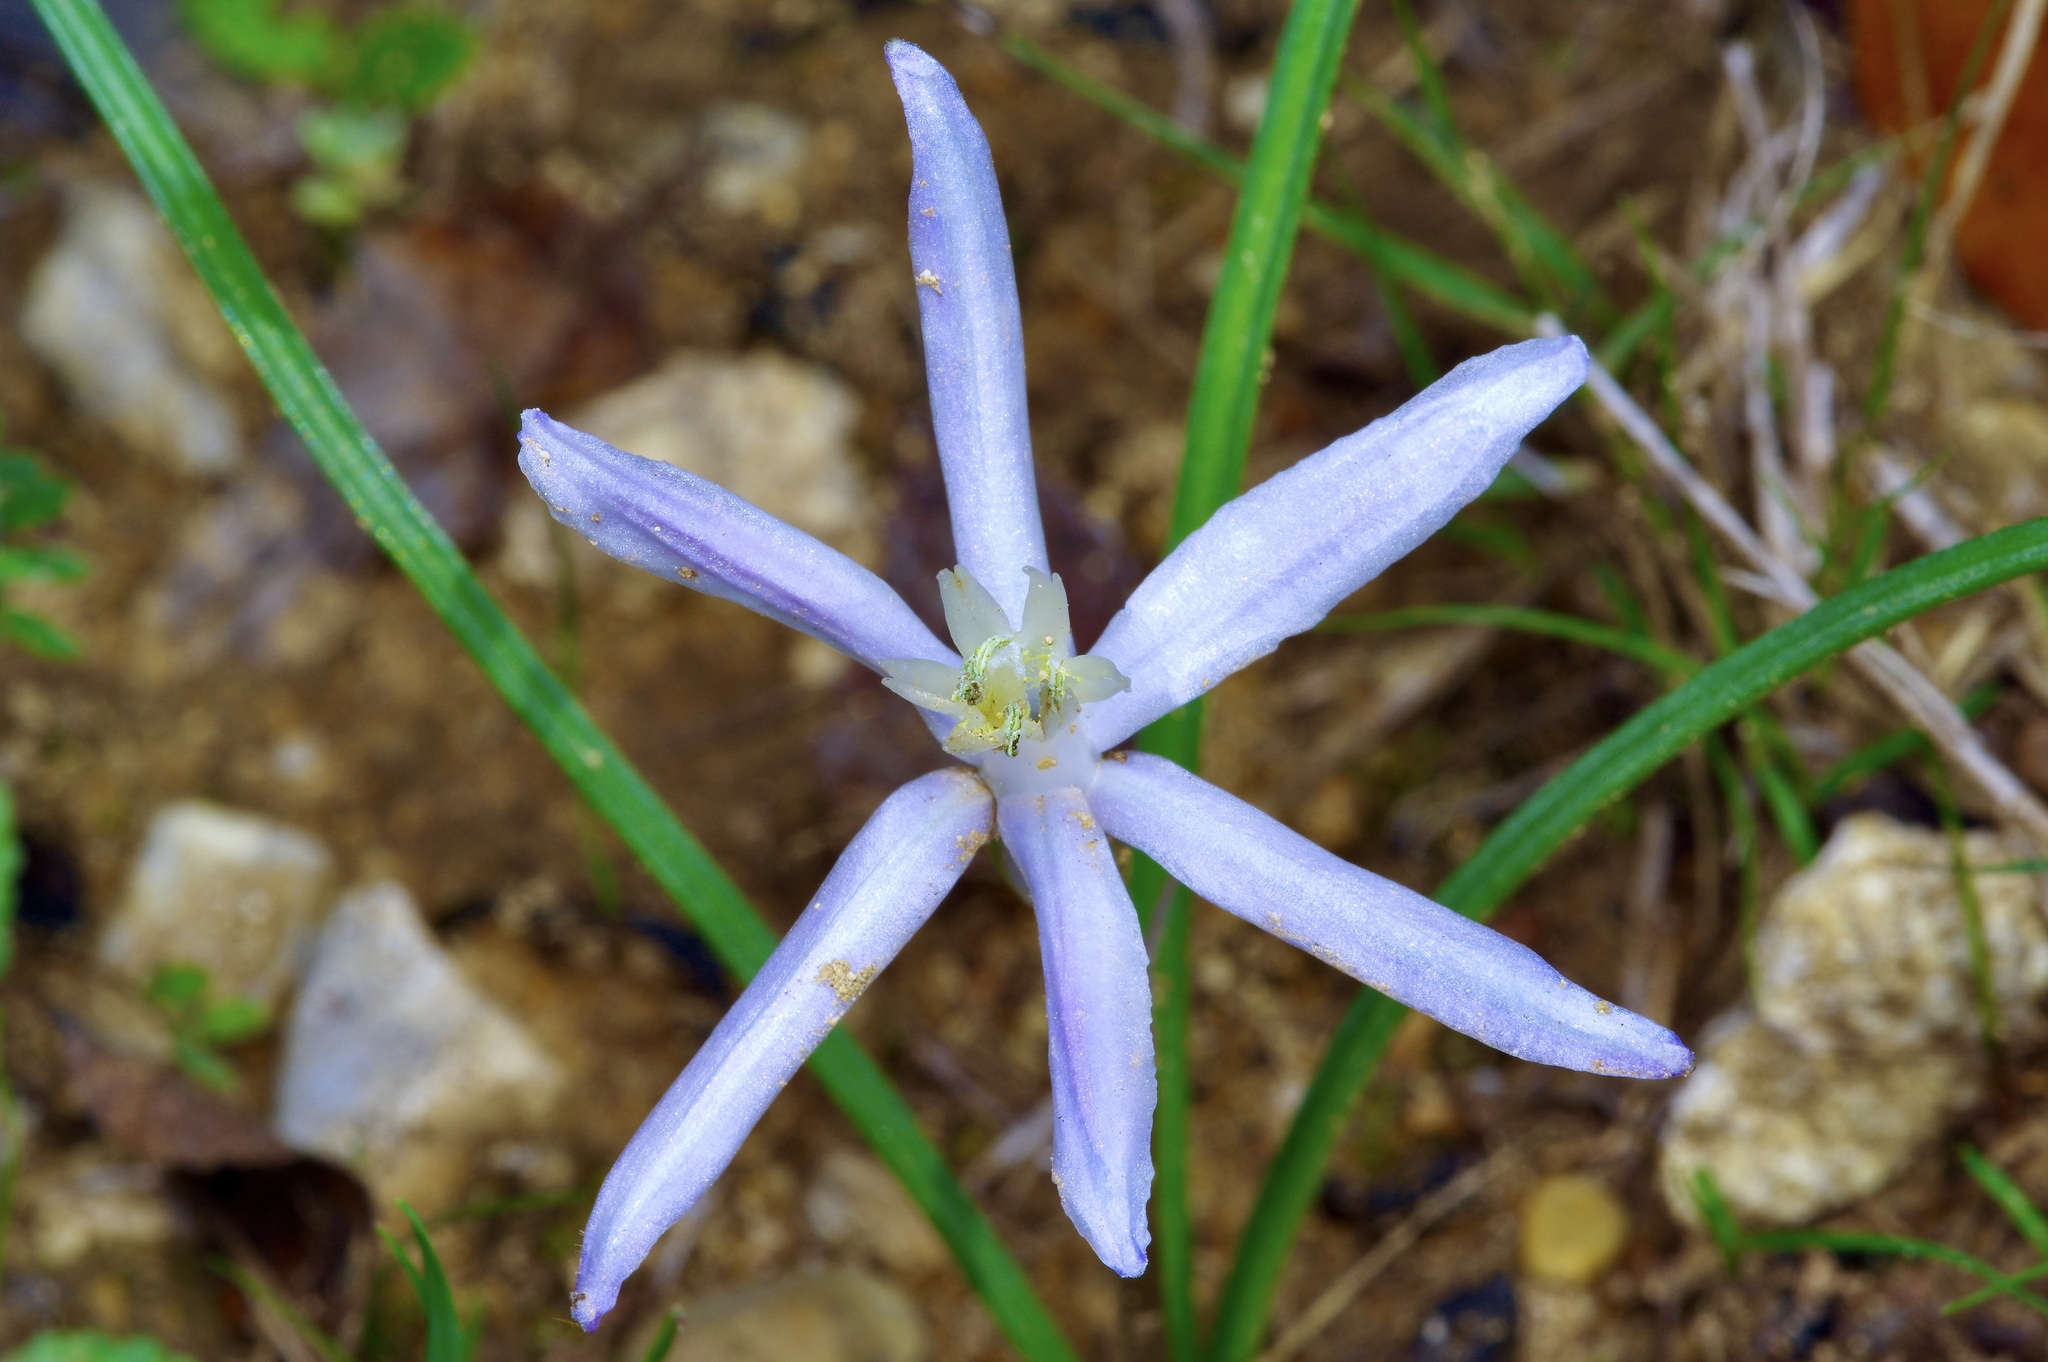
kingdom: Plantae
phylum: Tracheophyta
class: Liliopsida
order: Asparagales
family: Asparagaceae
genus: Androstephium
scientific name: Androstephium coeruleum
